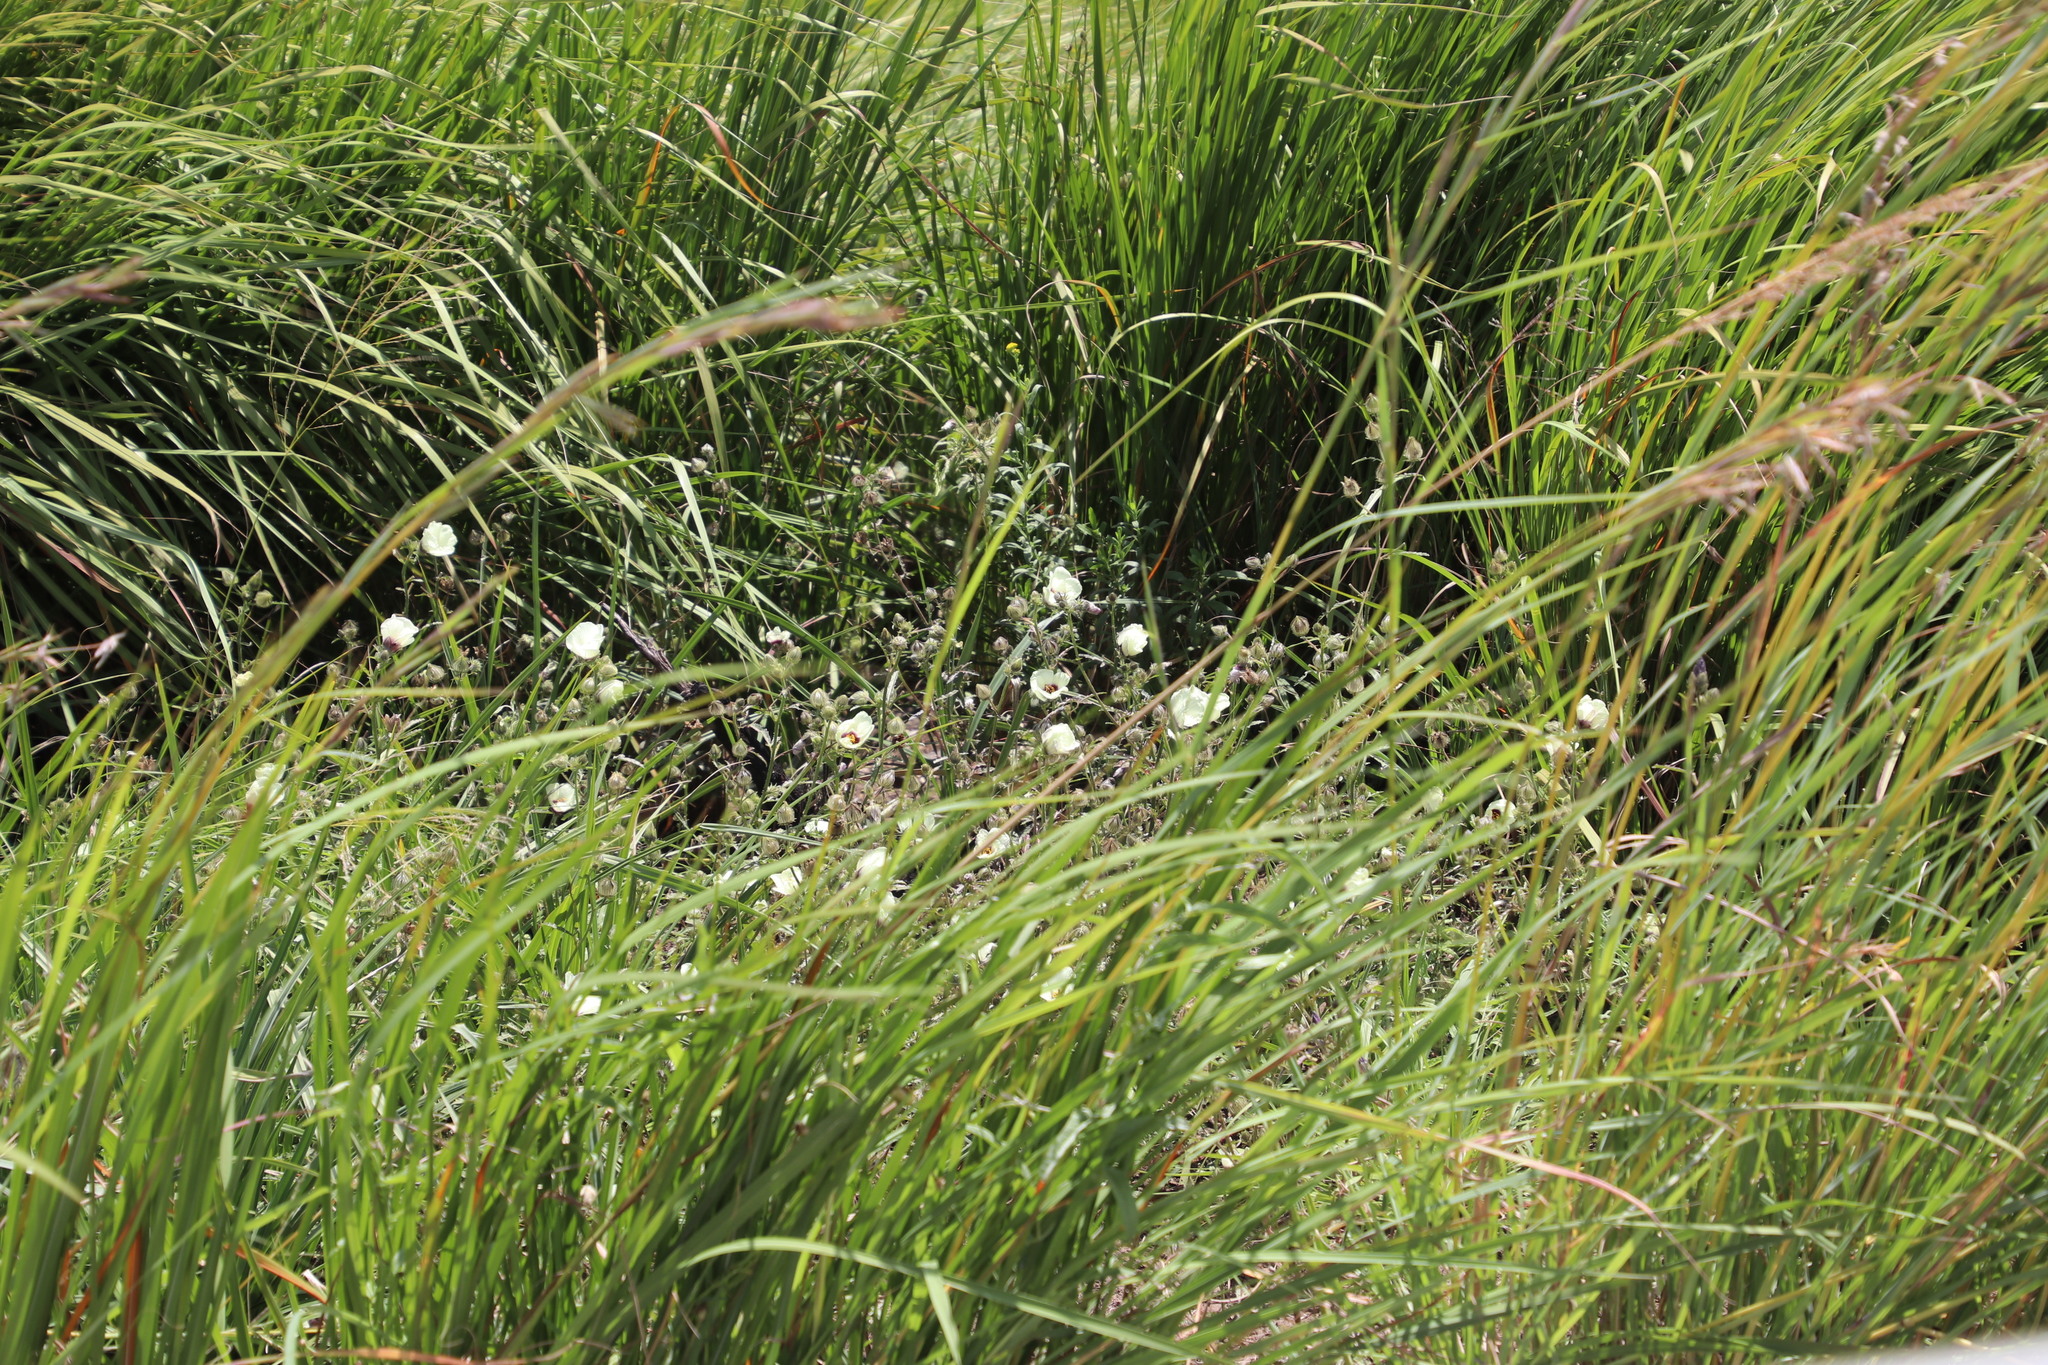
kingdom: Plantae
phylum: Tracheophyta
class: Magnoliopsida
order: Malvales
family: Malvaceae
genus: Hibiscus
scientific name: Hibiscus trionum
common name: Bladder ketmia
